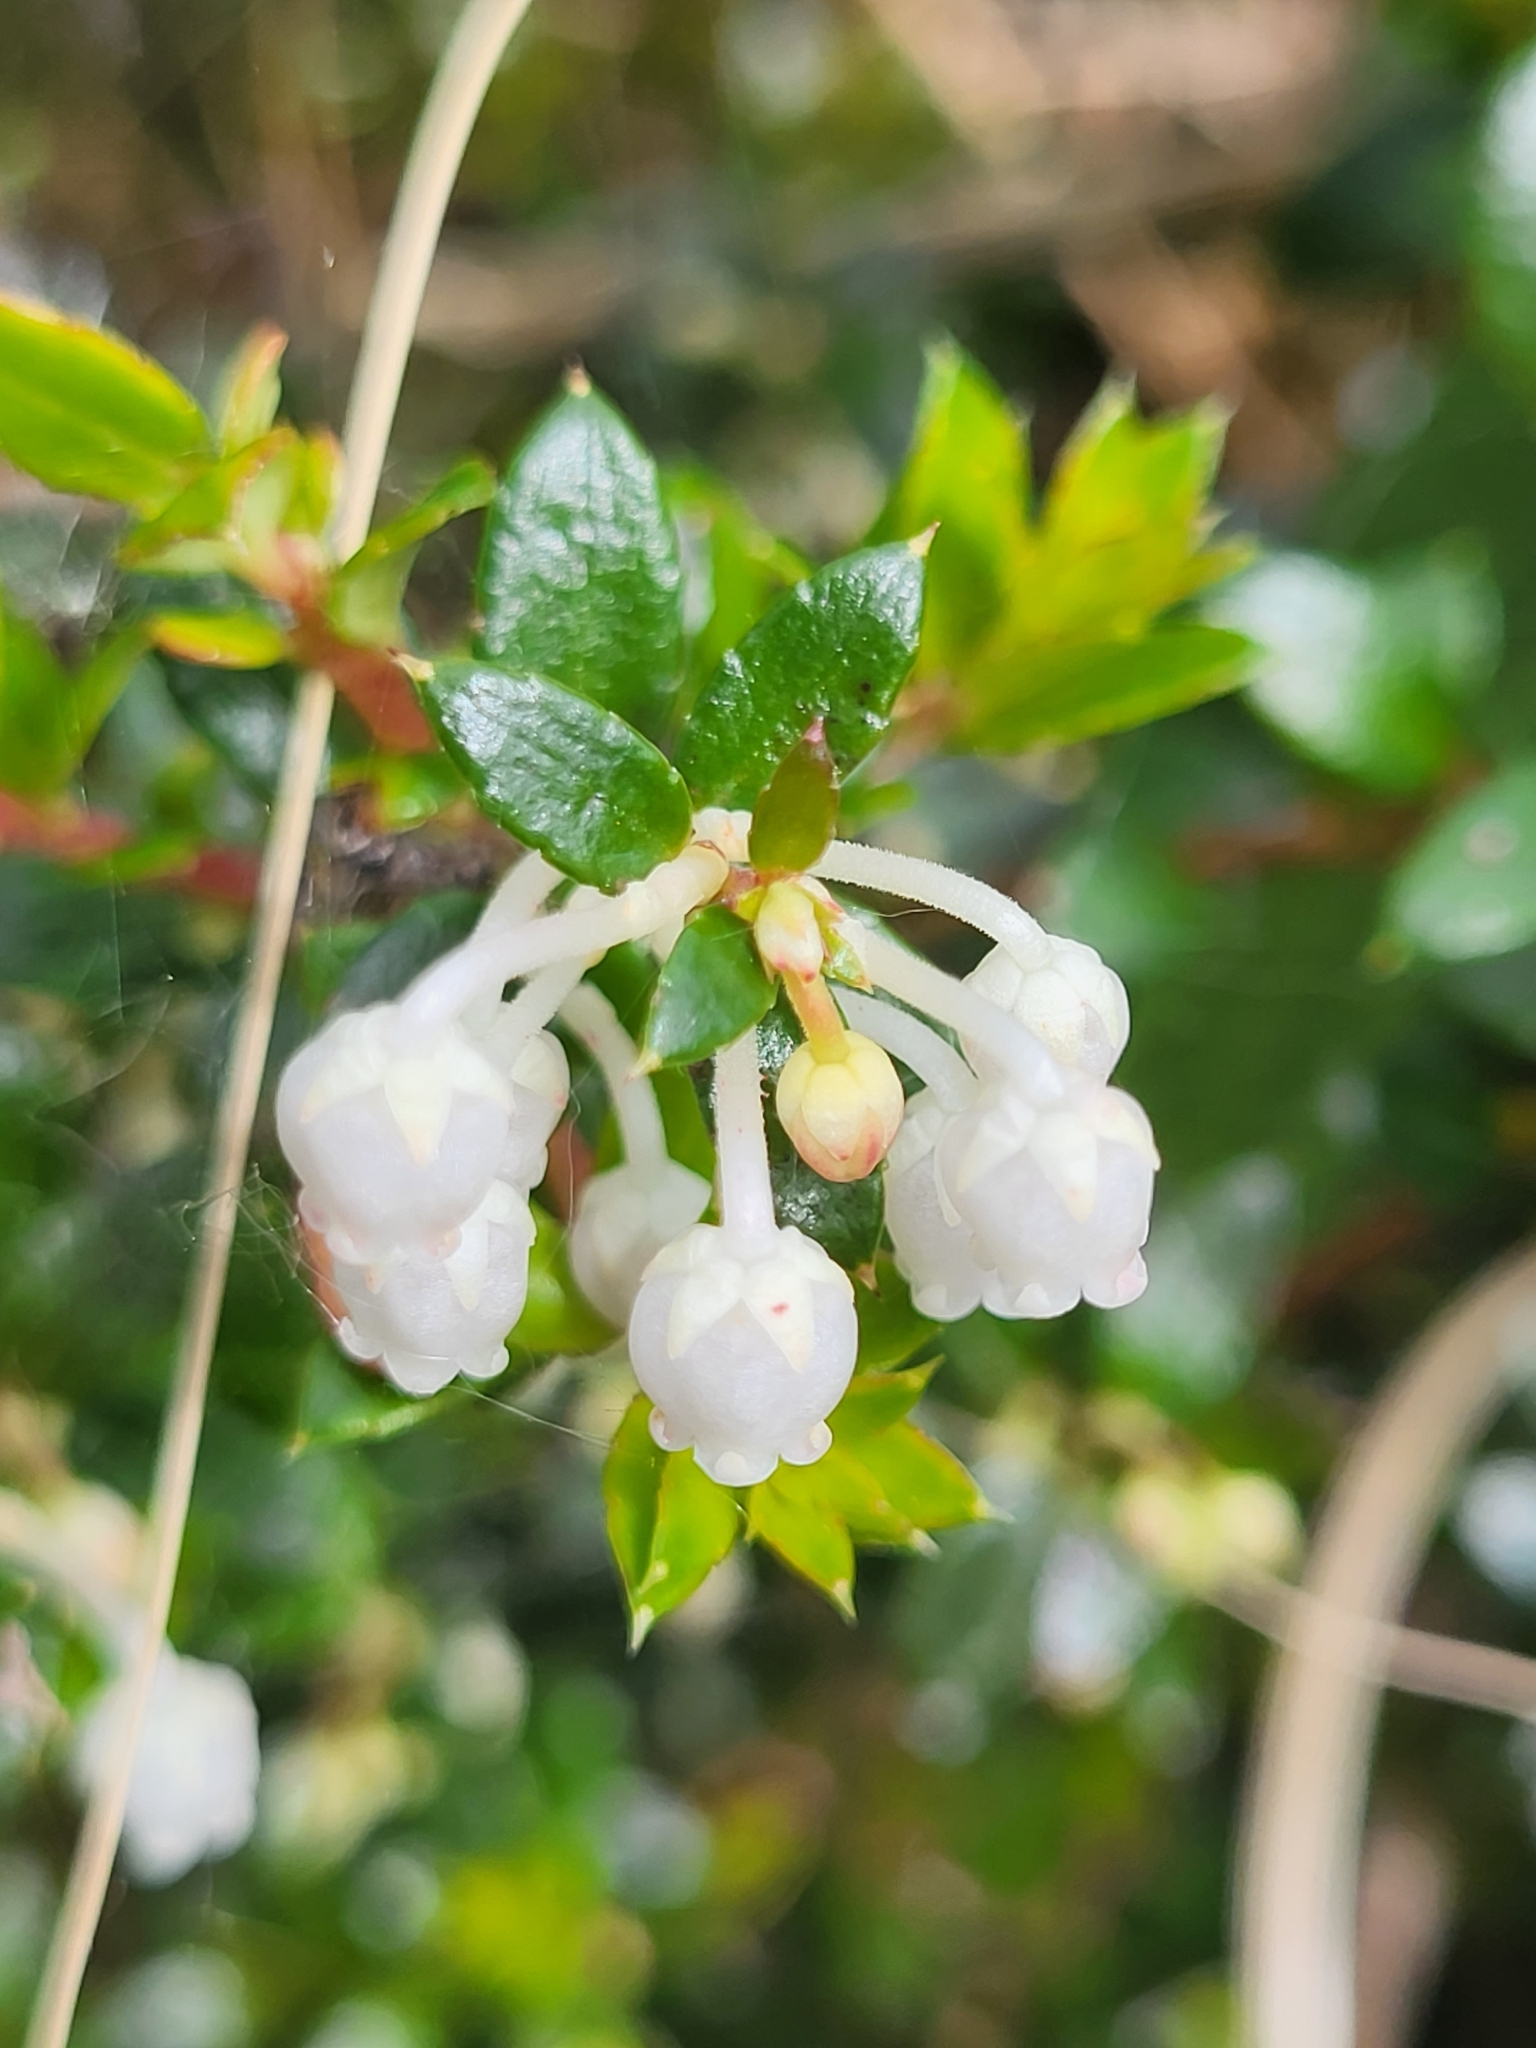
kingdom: Plantae
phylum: Tracheophyta
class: Magnoliopsida
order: Ericales
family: Ericaceae
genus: Gaultheria
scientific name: Gaultheria mucronata
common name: Prickly heath
